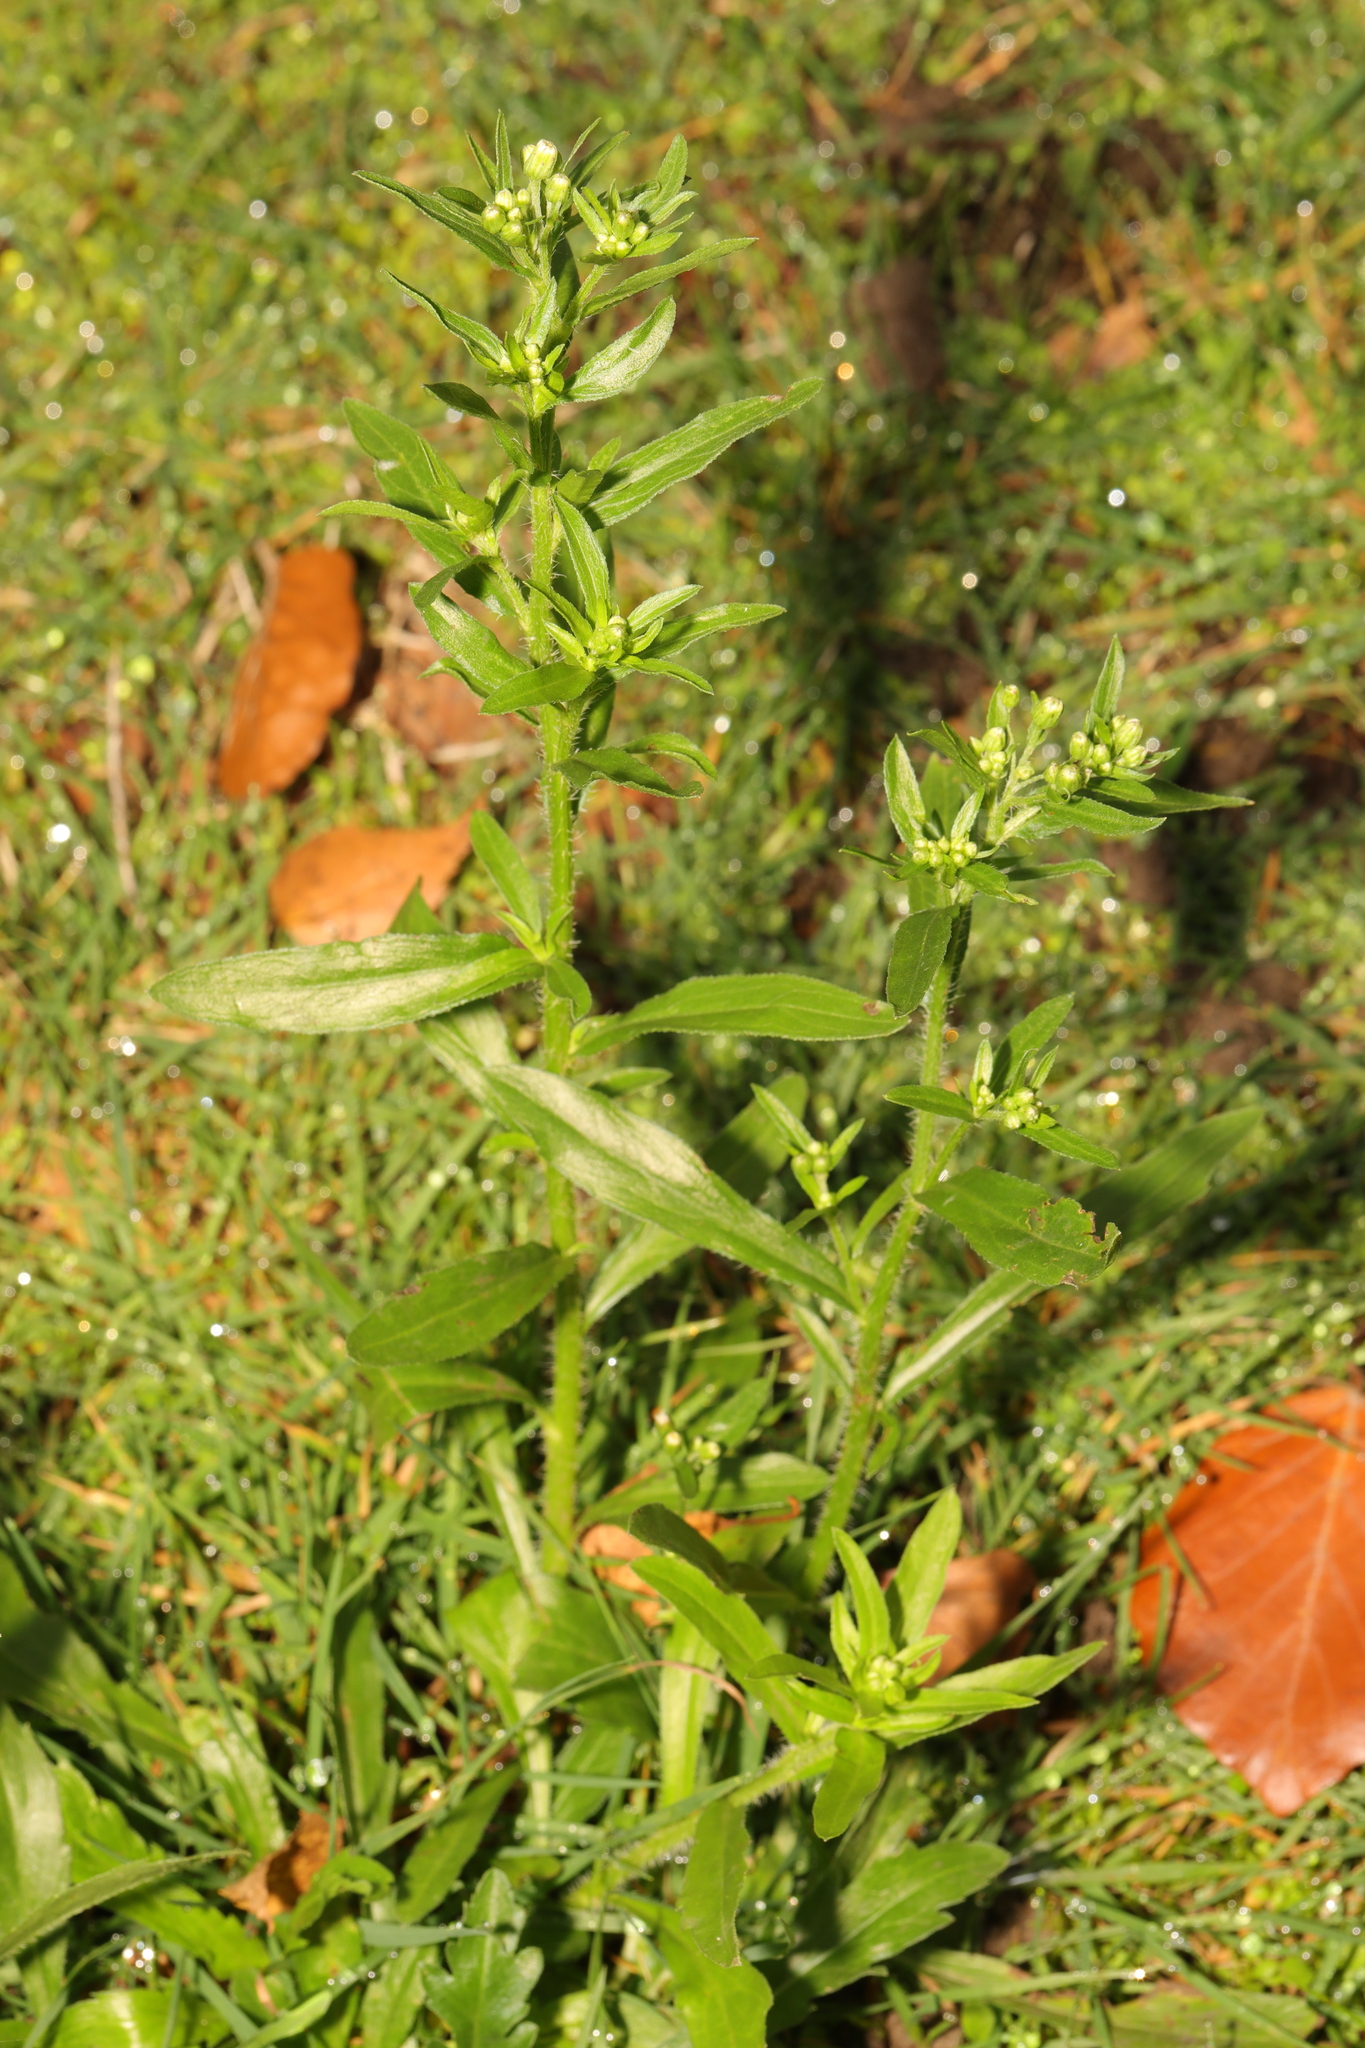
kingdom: Plantae
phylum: Tracheophyta
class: Magnoliopsida
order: Asterales
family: Asteraceae
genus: Erigeron
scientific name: Erigeron canadensis
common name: Canadian fleabane
